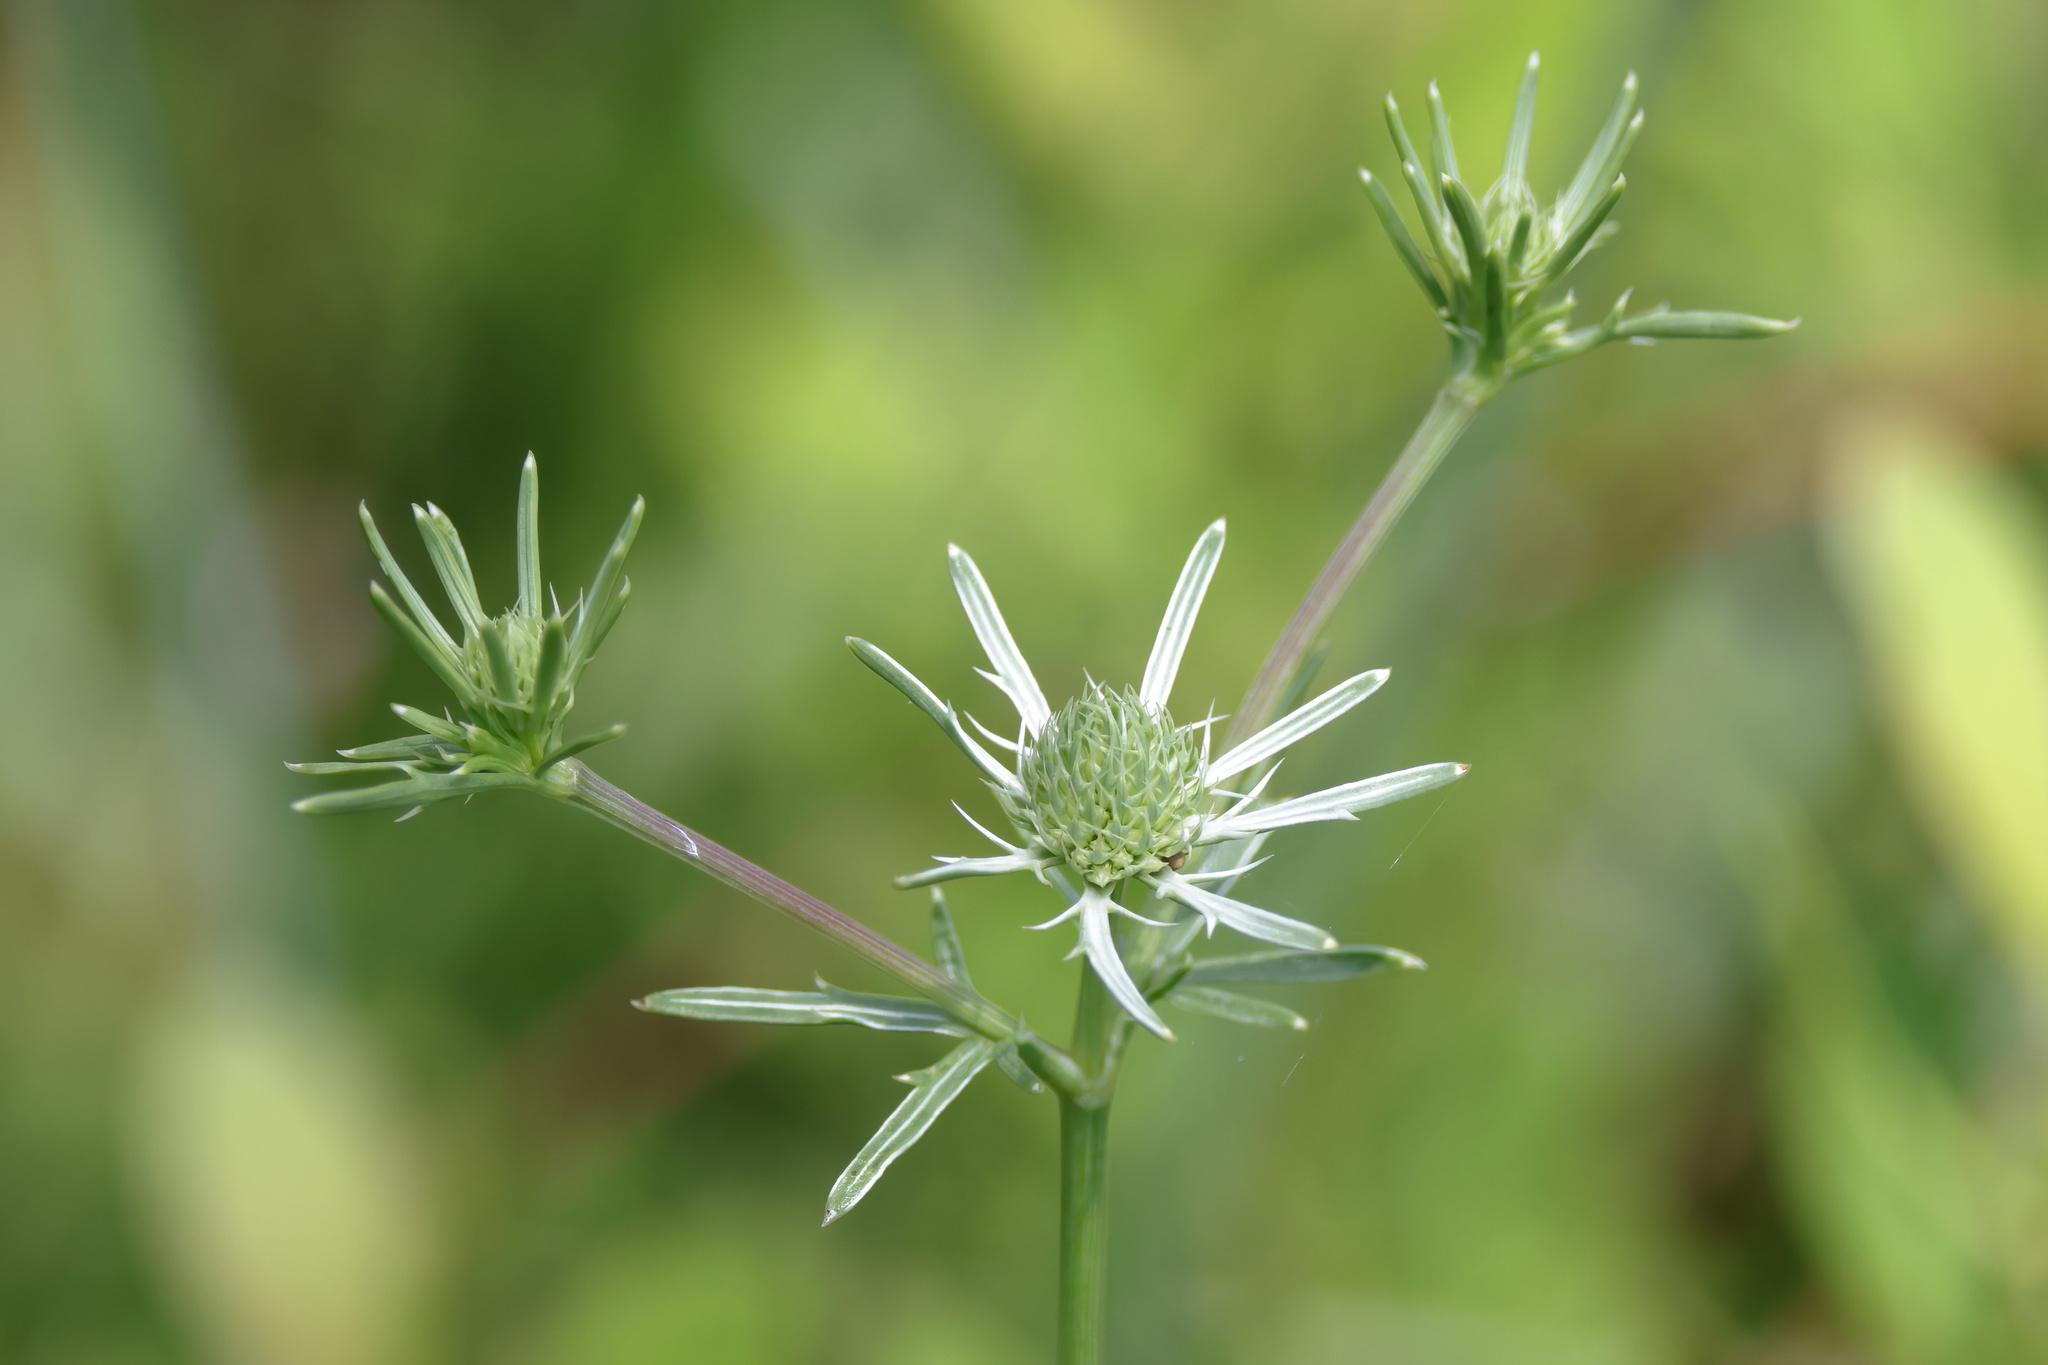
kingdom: Plantae
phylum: Tracheophyta
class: Magnoliopsida
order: Apiales
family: Apiaceae
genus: Eryngium
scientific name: Eryngium integrifolium
